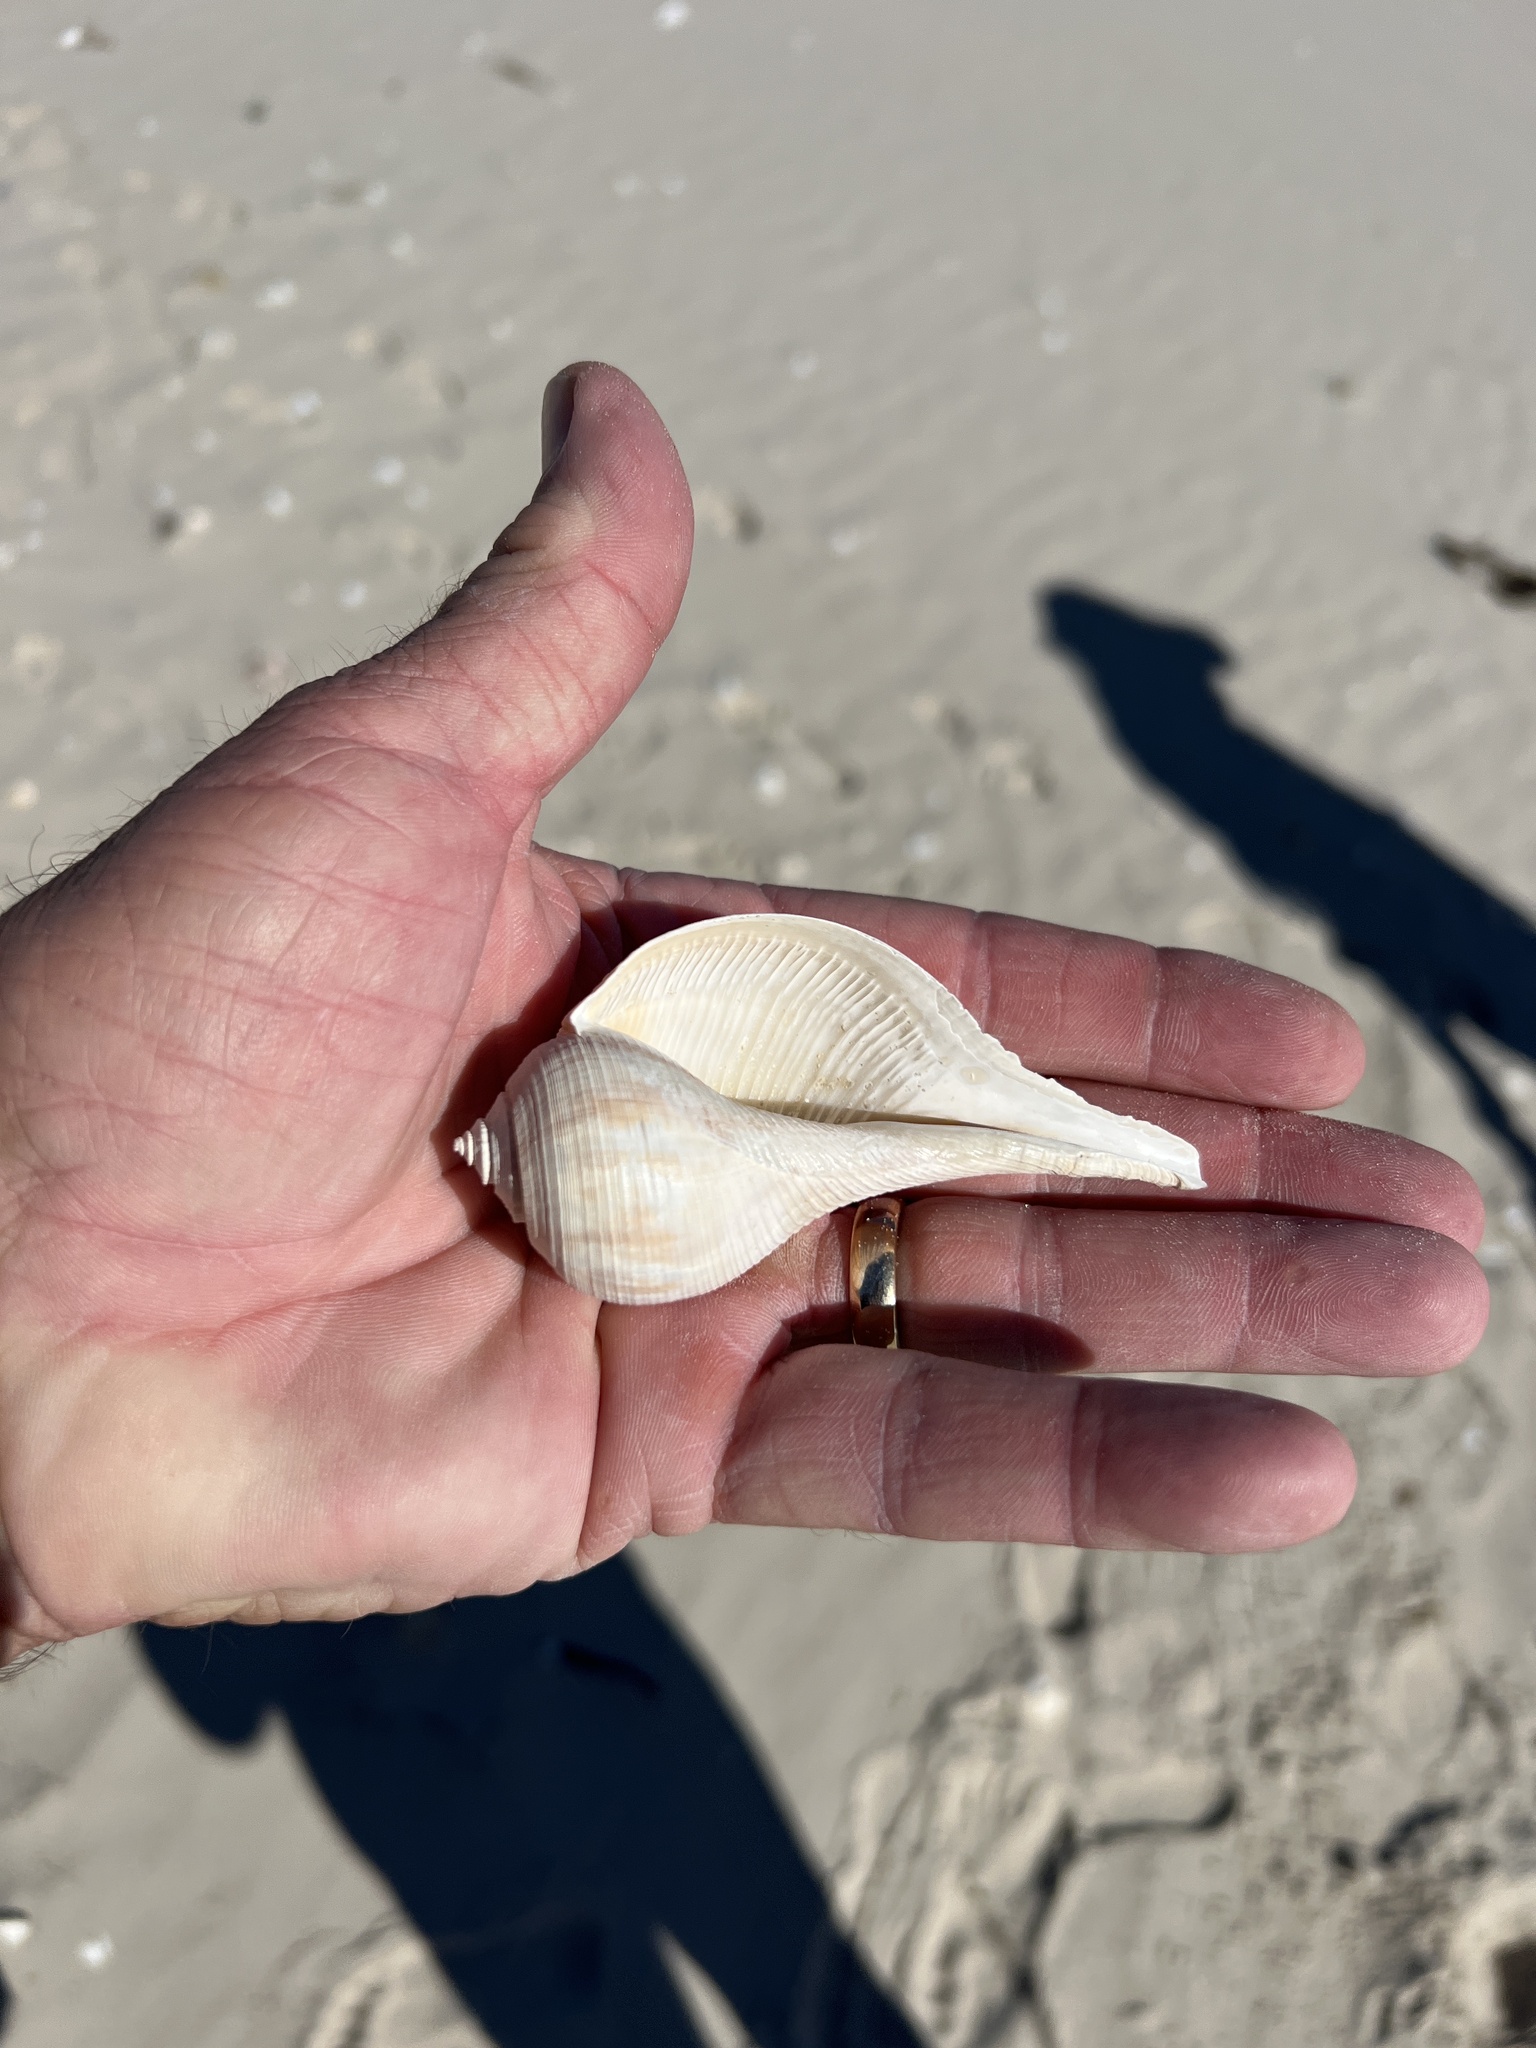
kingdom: Animalia
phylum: Mollusca
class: Gastropoda
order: Neogastropoda
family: Busyconidae
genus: Fulguropsis
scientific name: Fulguropsis spirata
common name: Pear whelk
